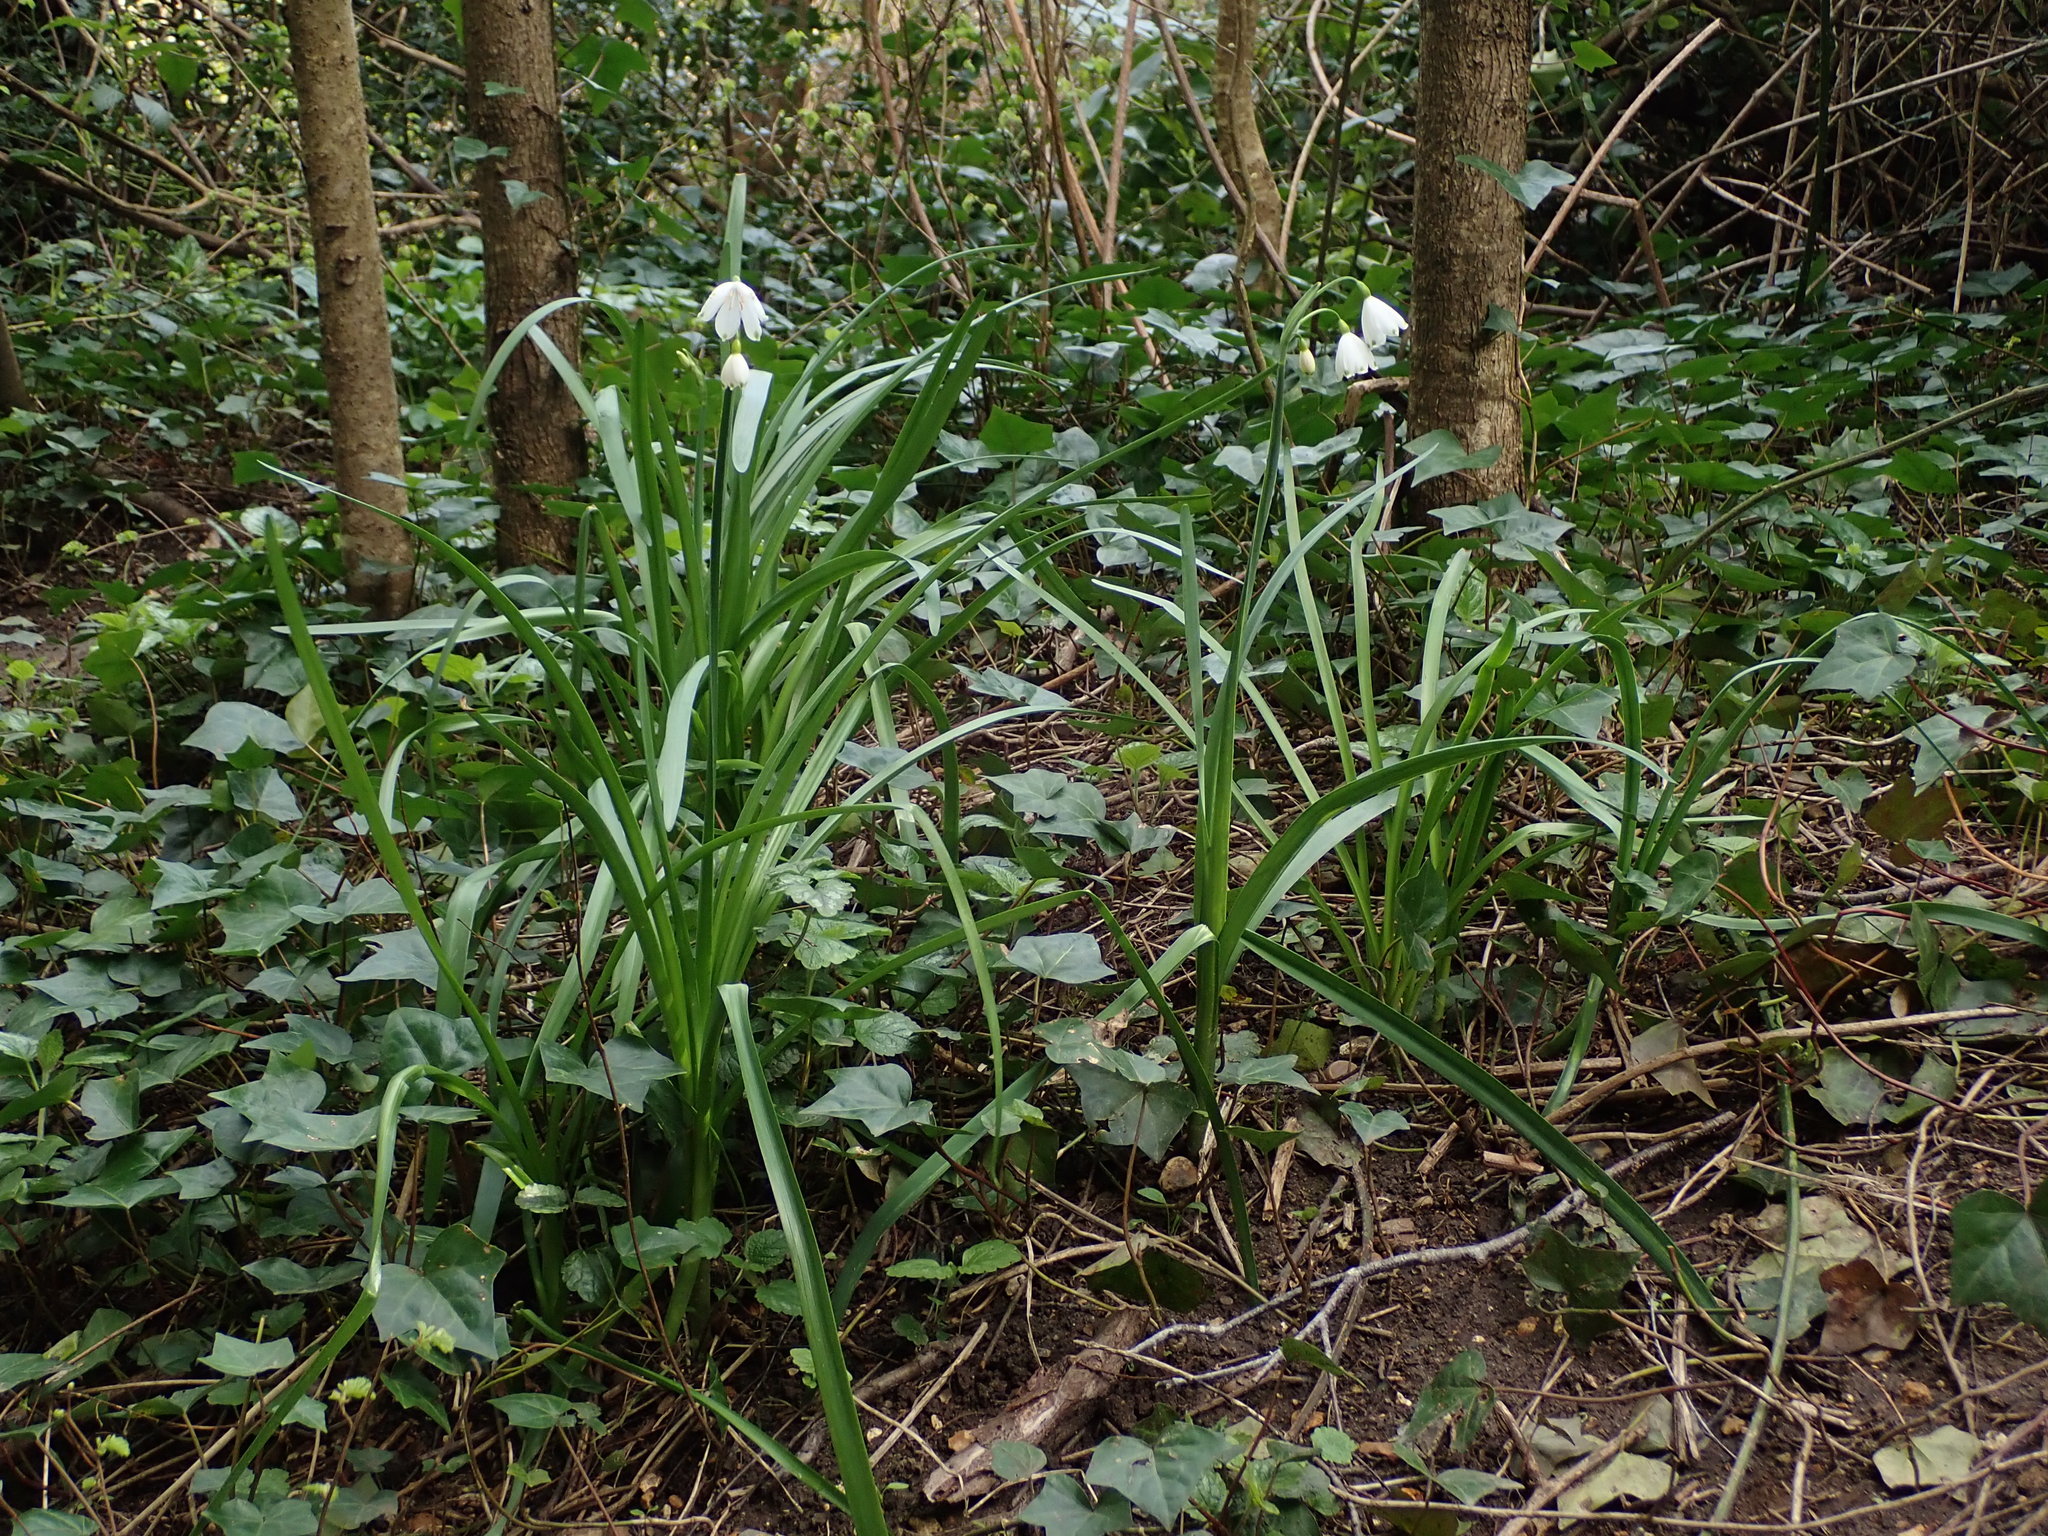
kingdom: Plantae
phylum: Tracheophyta
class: Liliopsida
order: Asparagales
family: Amaryllidaceae
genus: Leucojum
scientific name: Leucojum aestivum
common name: Summer snowflake
